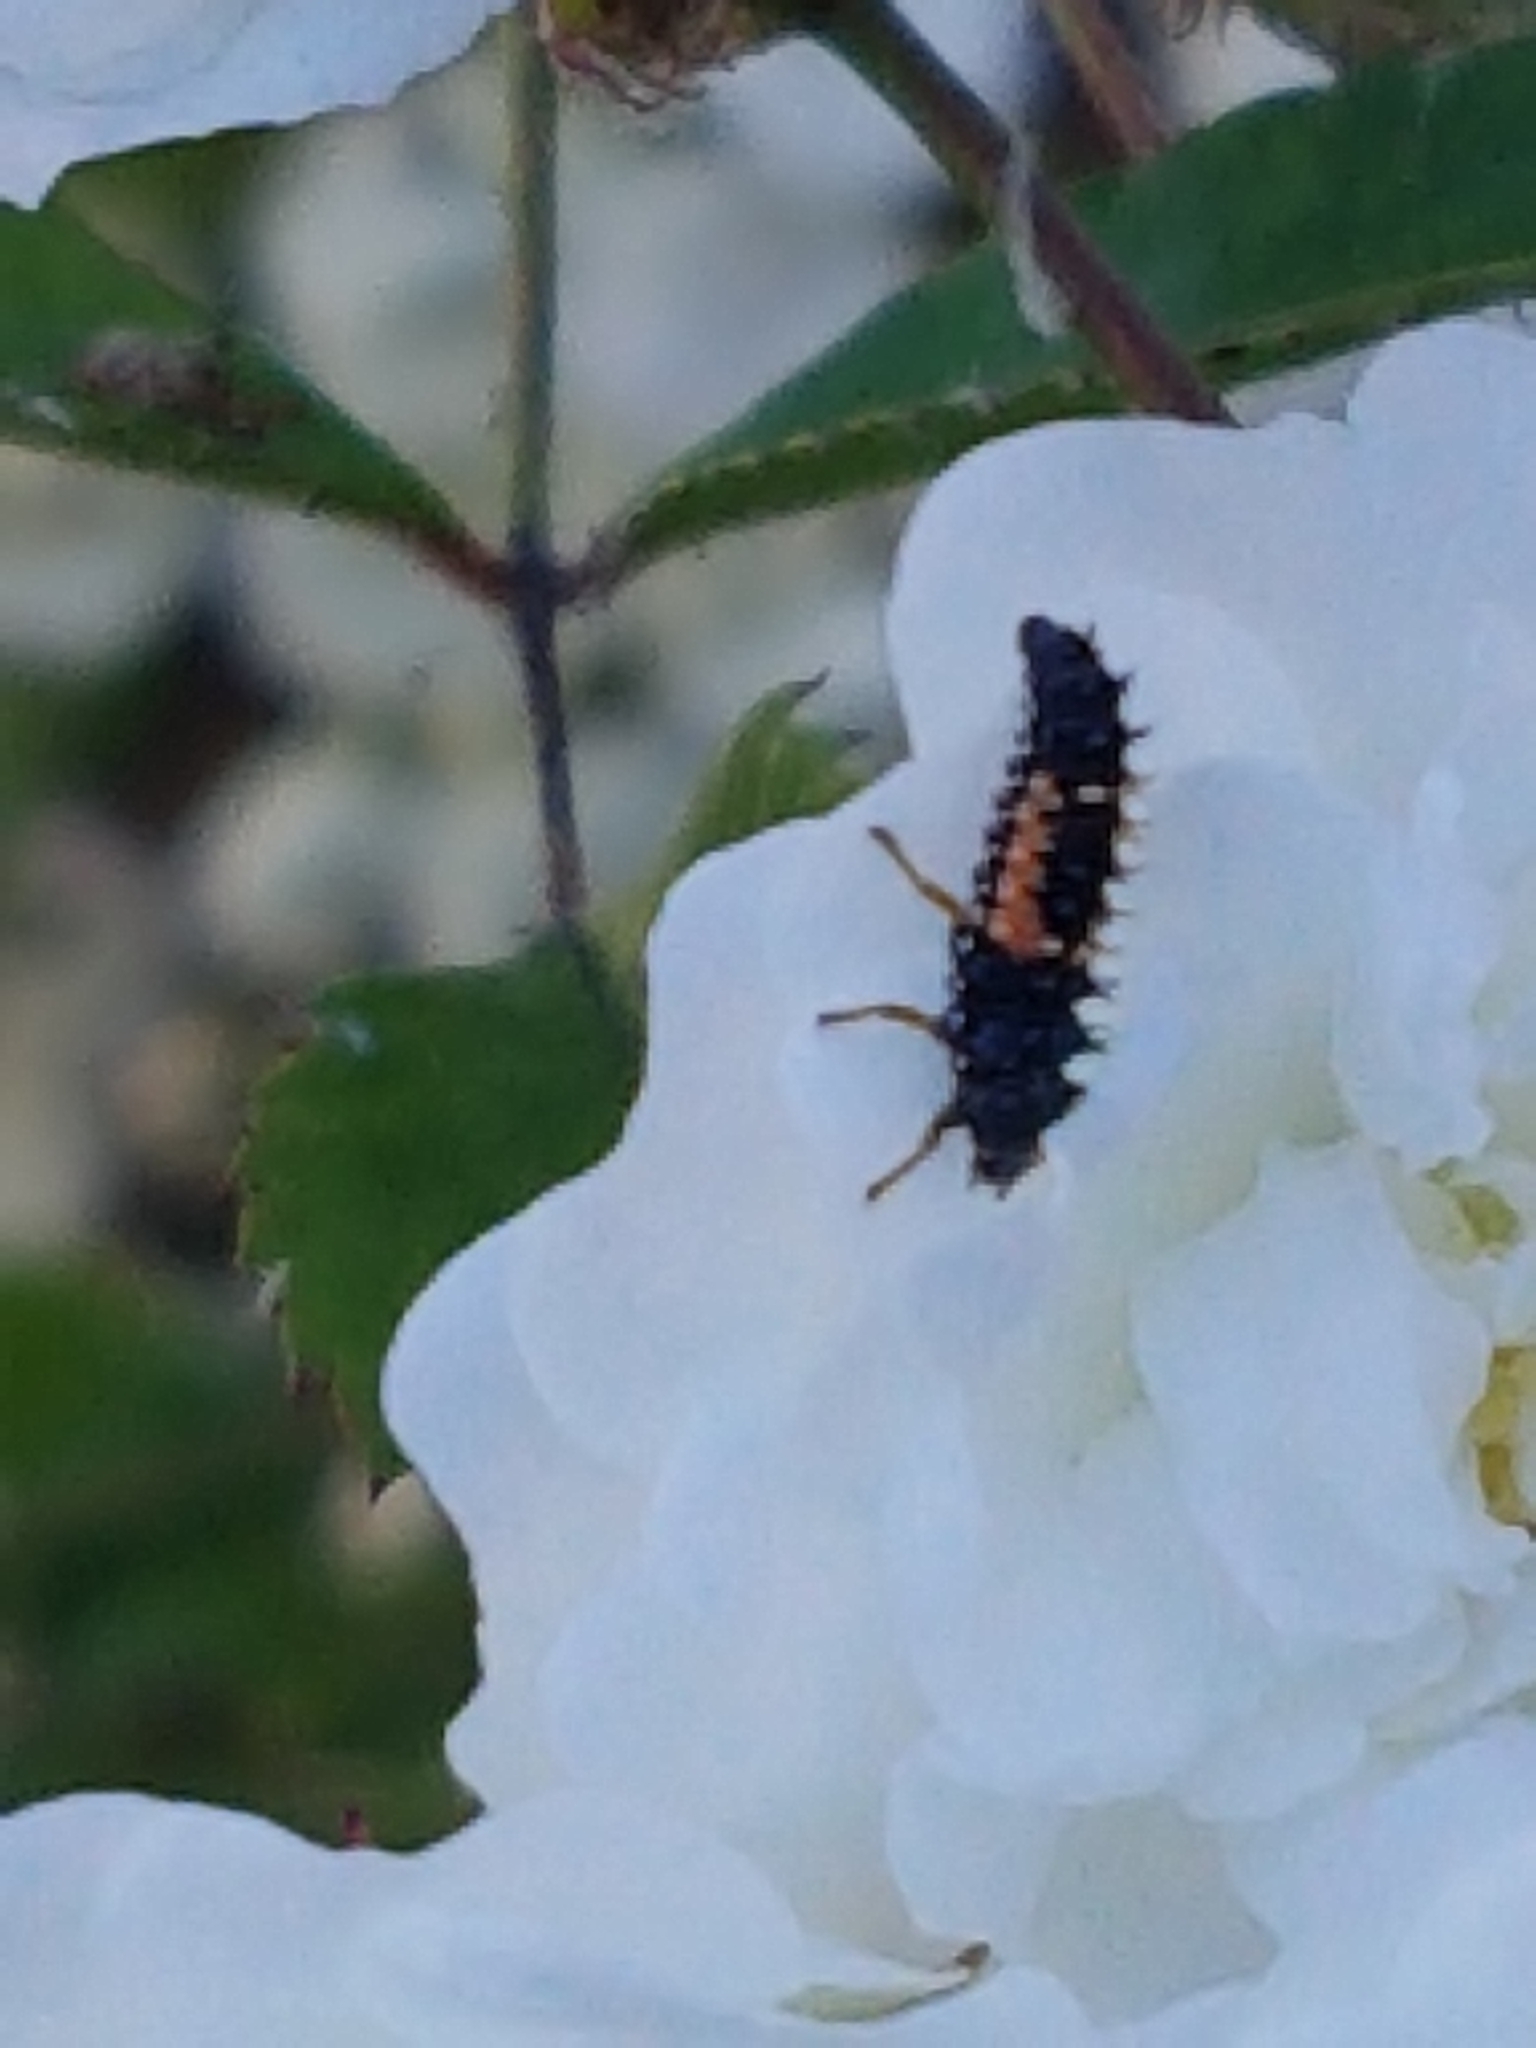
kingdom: Animalia
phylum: Arthropoda
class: Insecta
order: Coleoptera
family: Coccinellidae
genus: Harmonia
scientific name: Harmonia axyridis
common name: Harlequin ladybird
